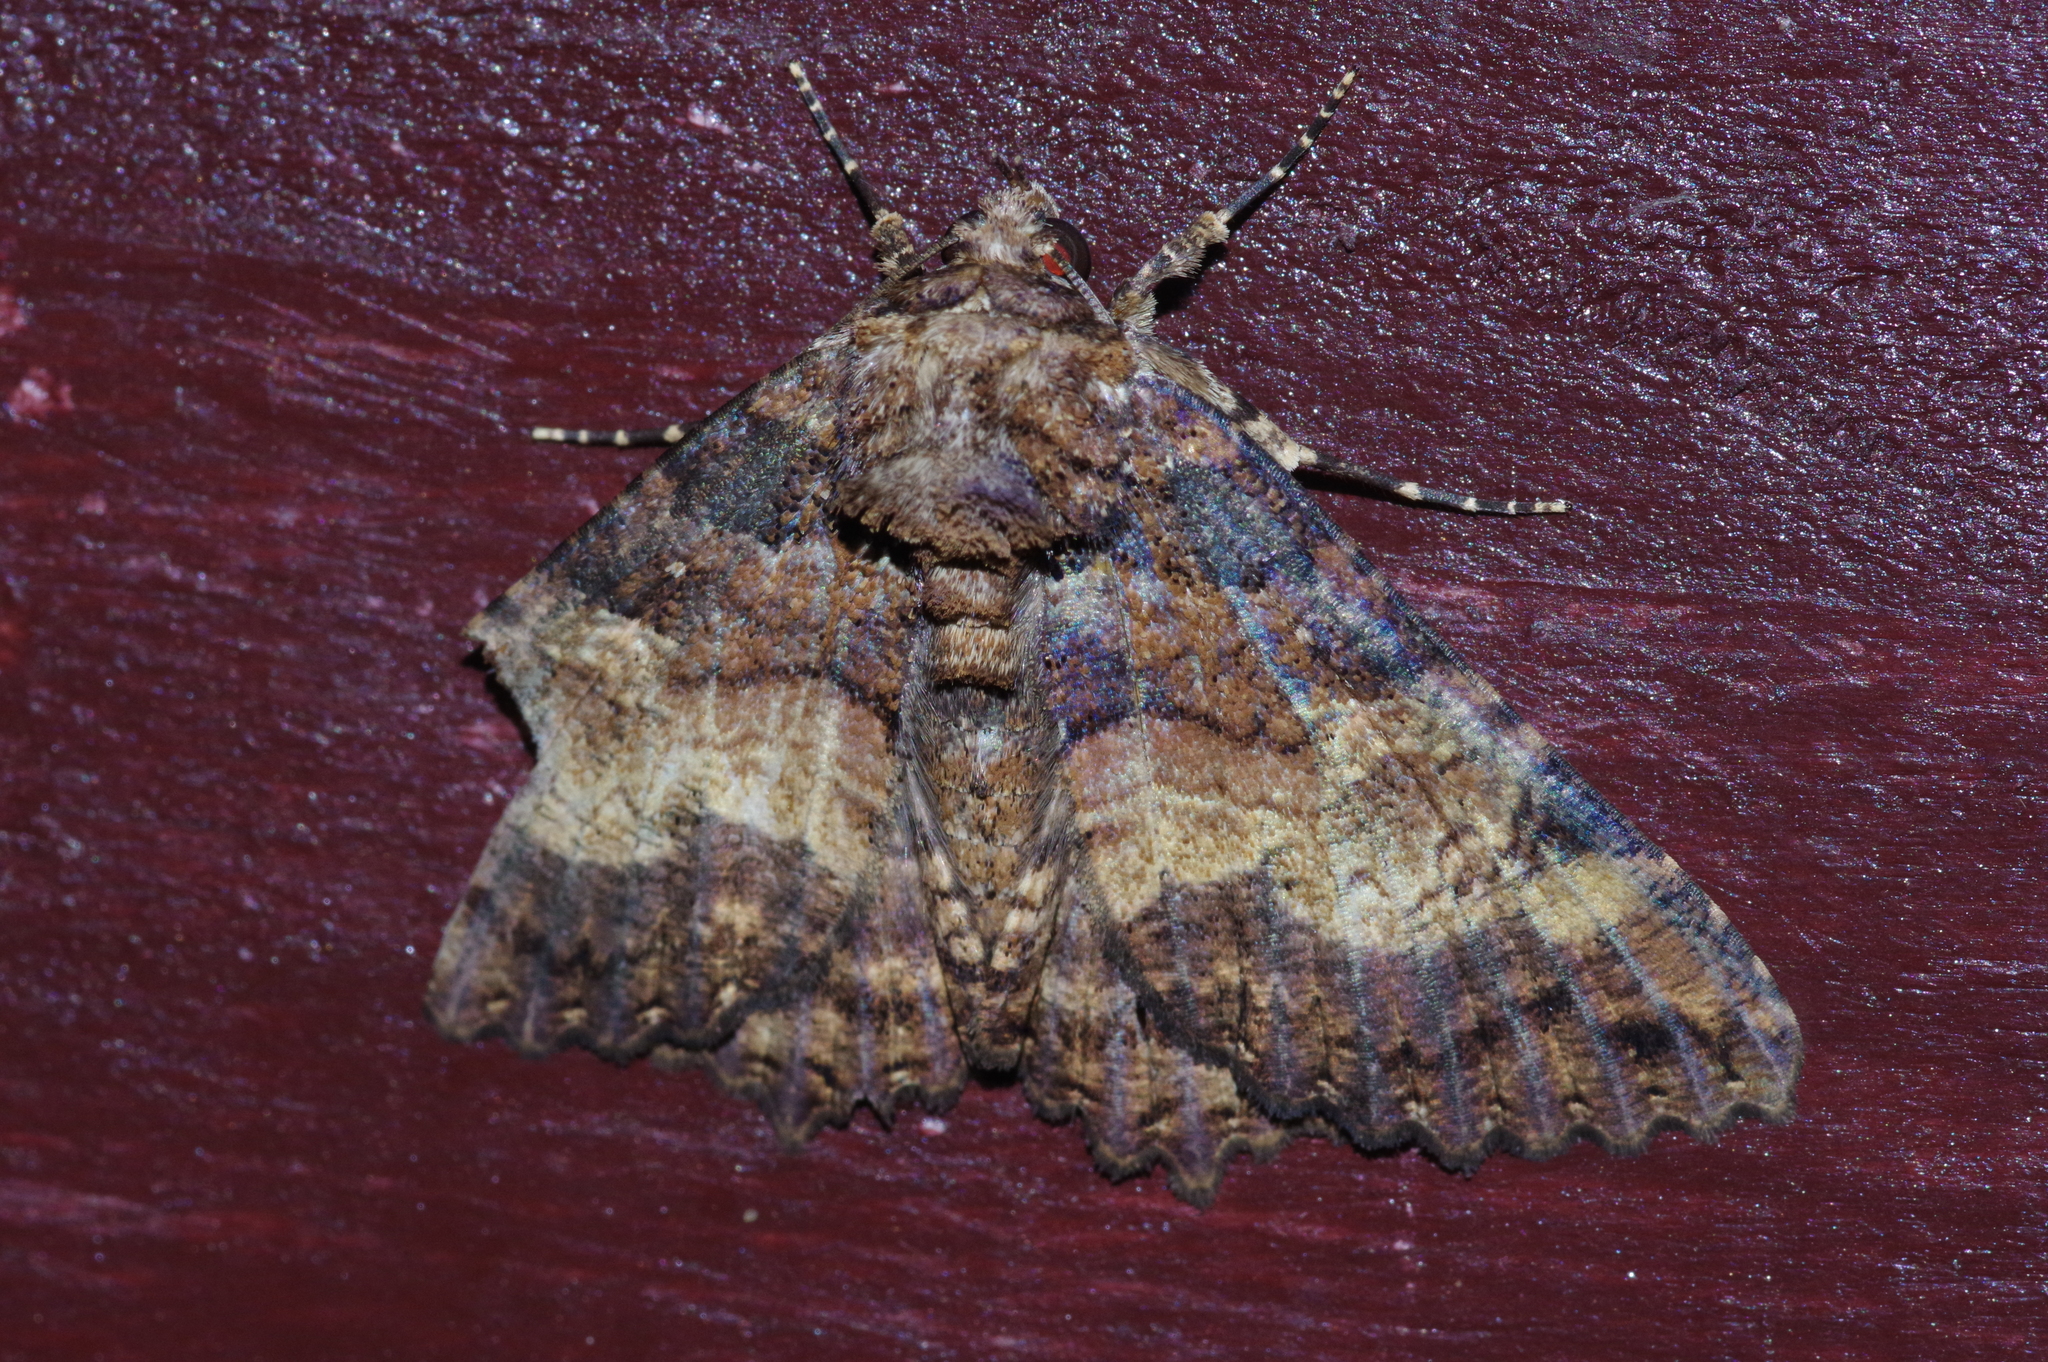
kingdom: Animalia
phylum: Arthropoda
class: Insecta
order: Lepidoptera
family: Erebidae
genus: Daddala
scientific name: Daddala lucilla
